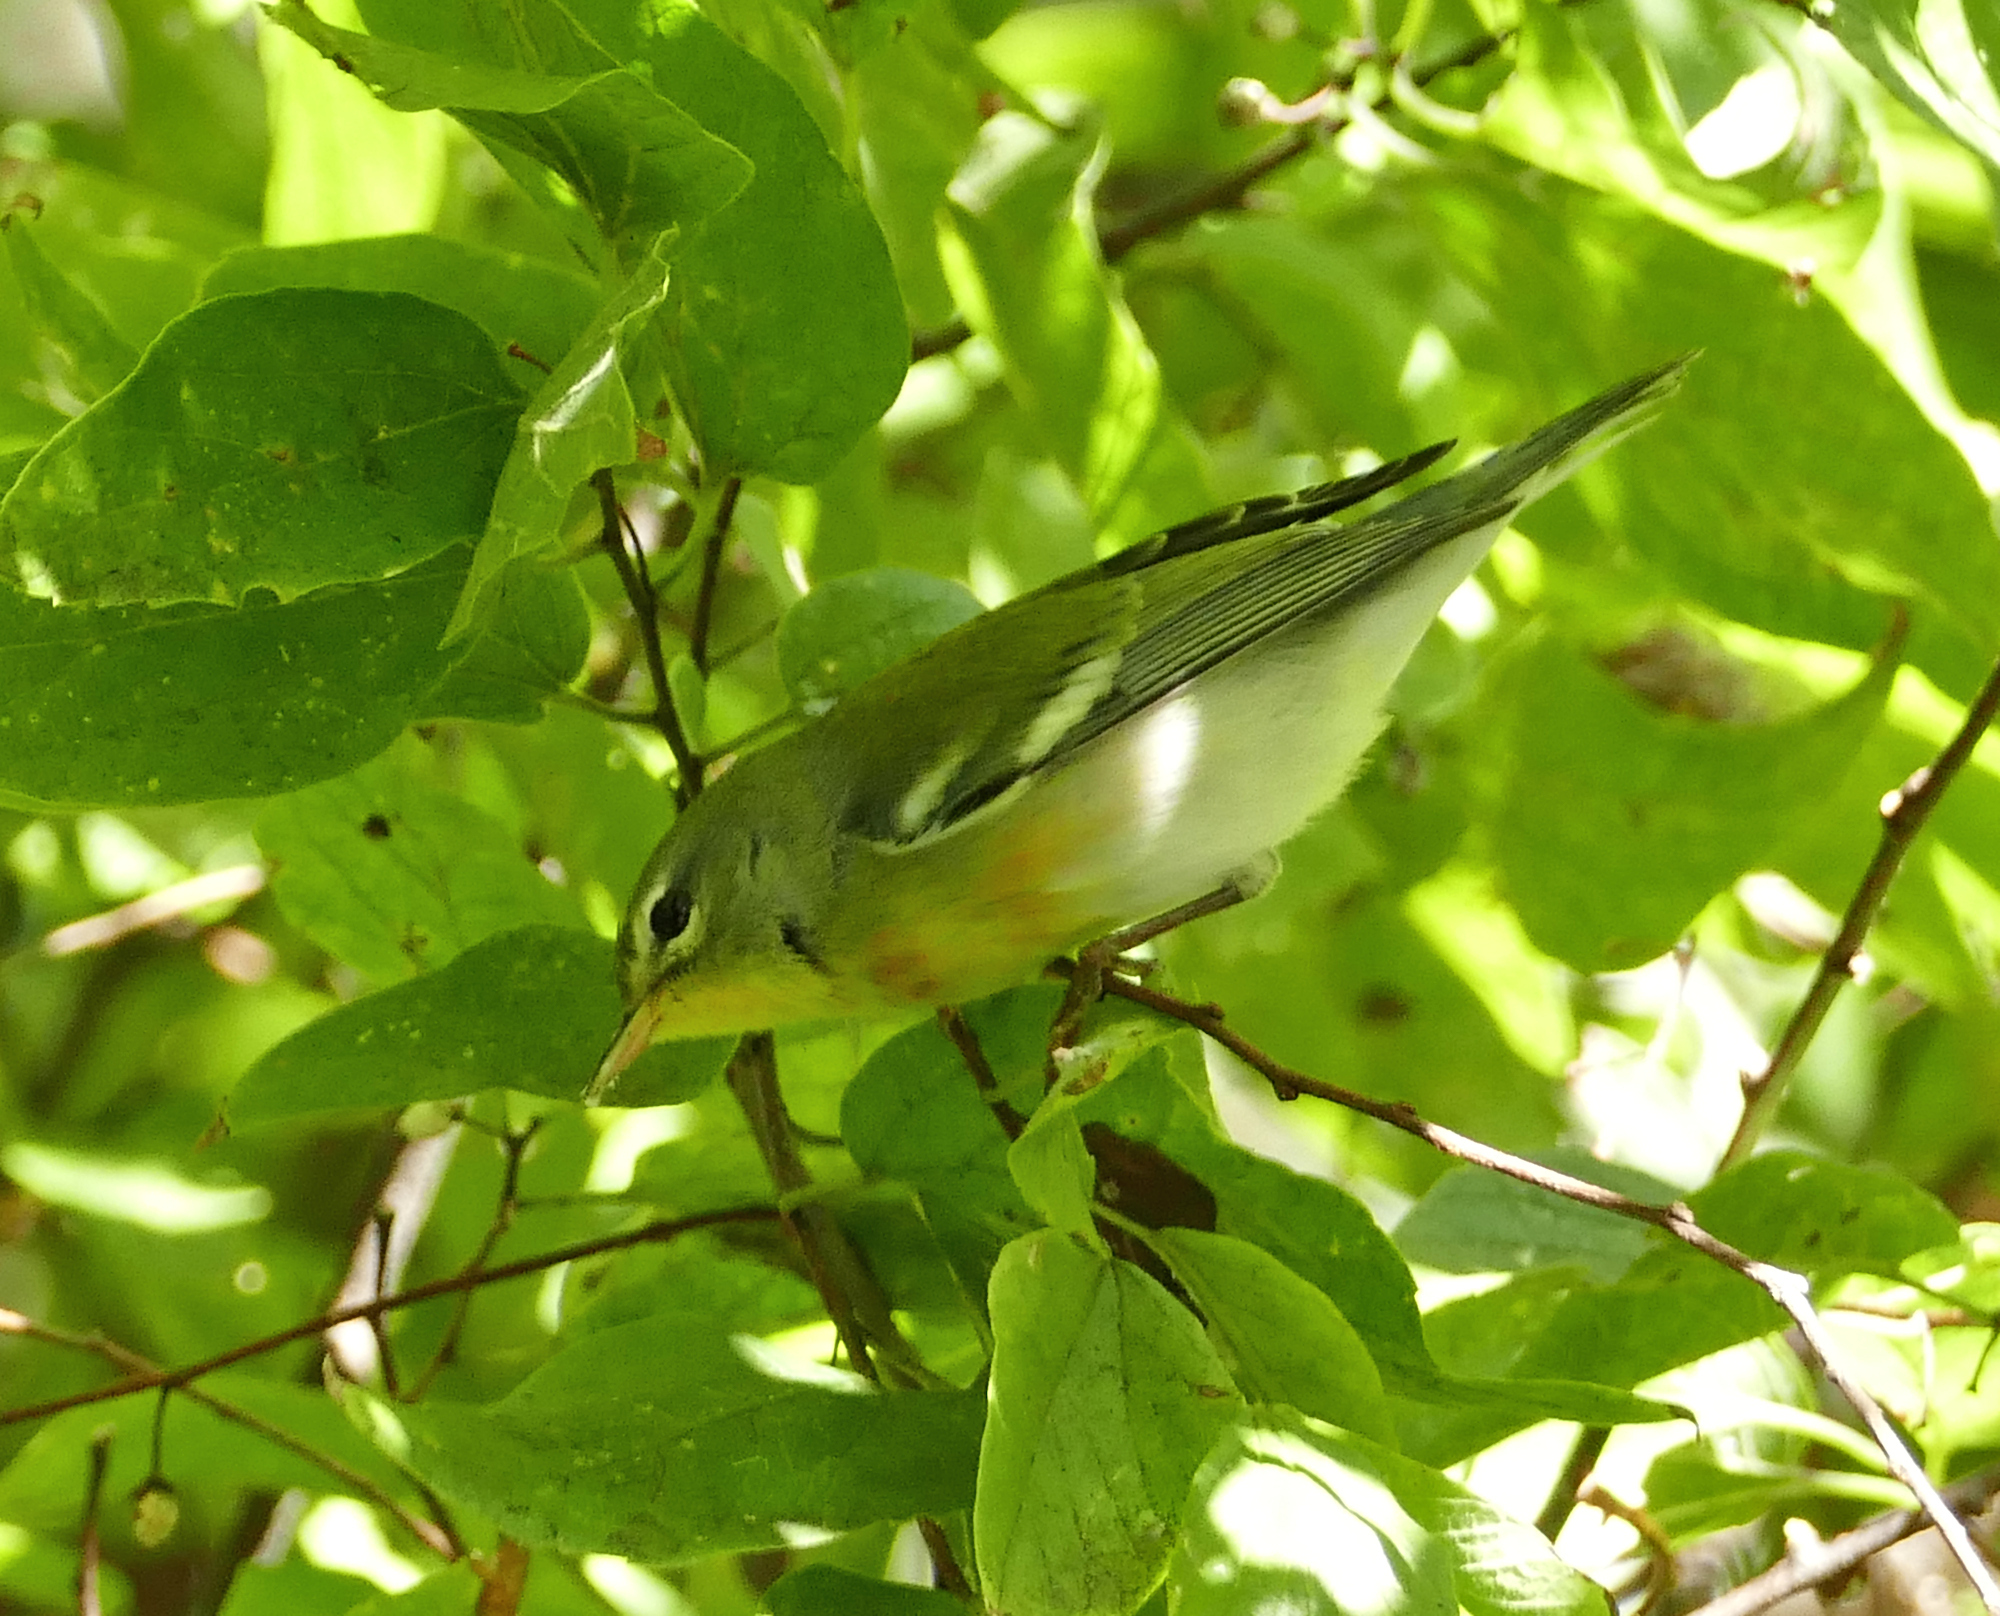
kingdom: Animalia
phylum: Chordata
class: Aves
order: Passeriformes
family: Parulidae
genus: Setophaga
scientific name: Setophaga americana
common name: Northern parula
